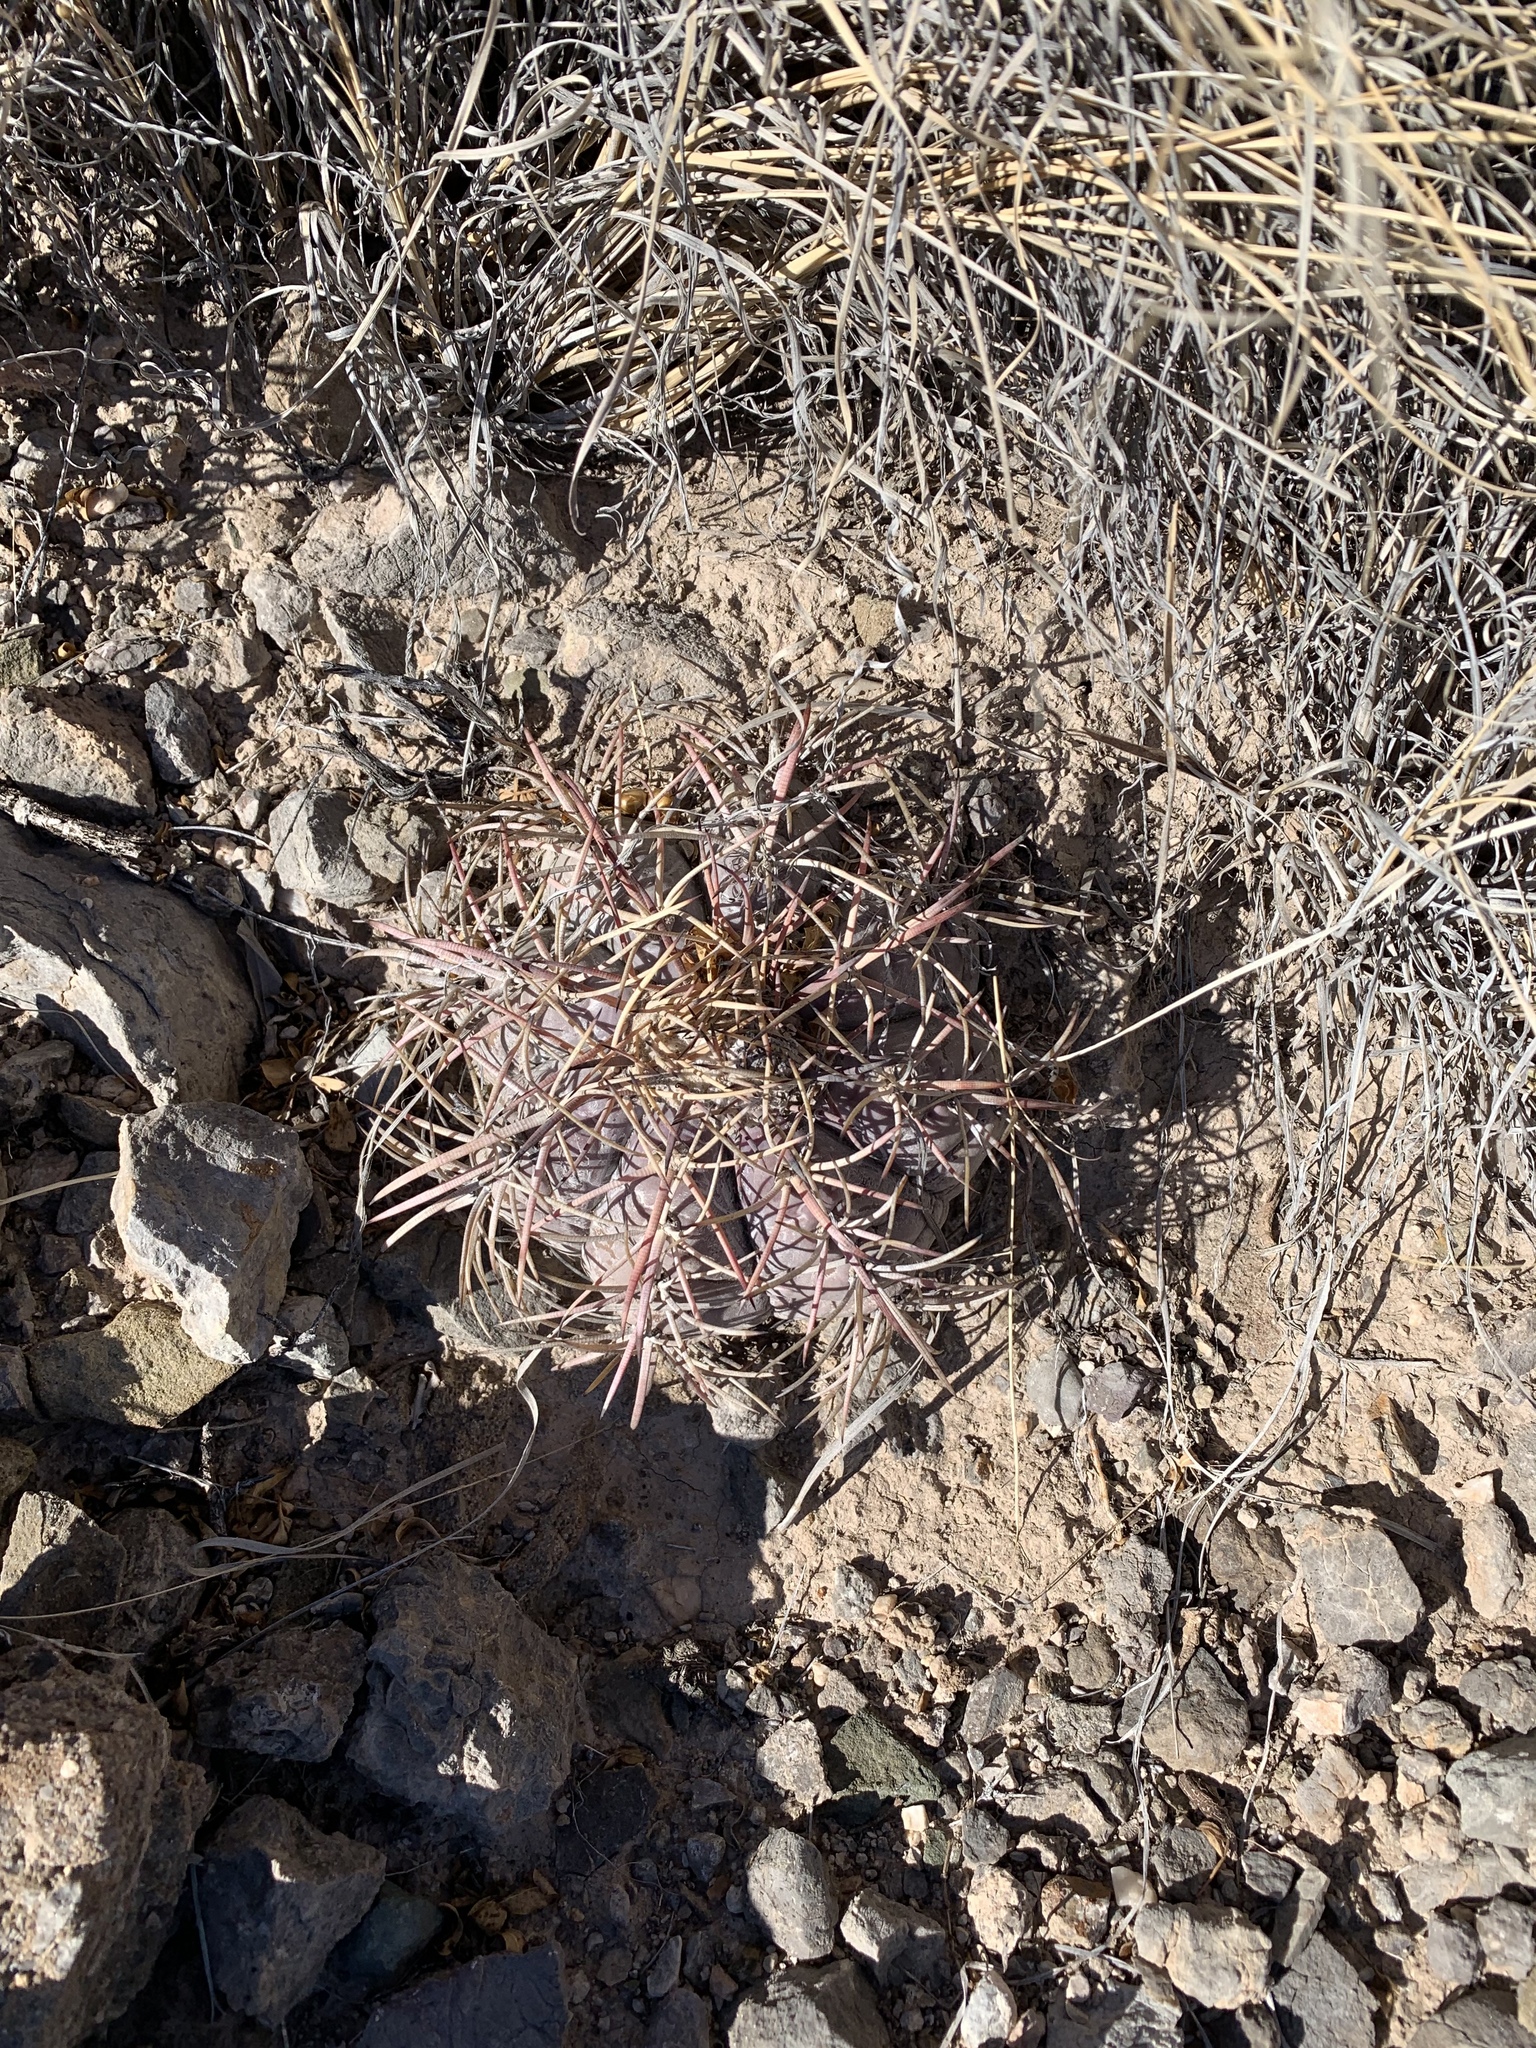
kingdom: Plantae
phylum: Tracheophyta
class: Magnoliopsida
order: Caryophyllales
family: Cactaceae
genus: Echinocactus
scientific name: Echinocactus horizonthalonius
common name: Devilshead
